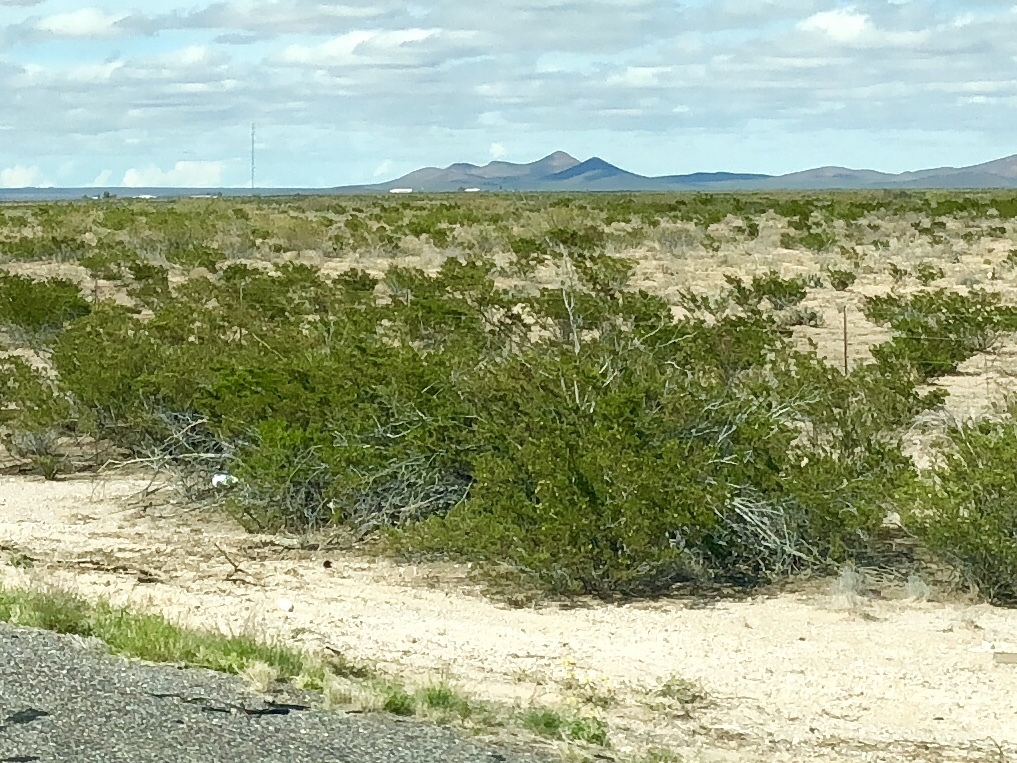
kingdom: Plantae
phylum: Tracheophyta
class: Magnoliopsida
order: Zygophyllales
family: Zygophyllaceae
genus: Larrea
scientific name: Larrea tridentata
